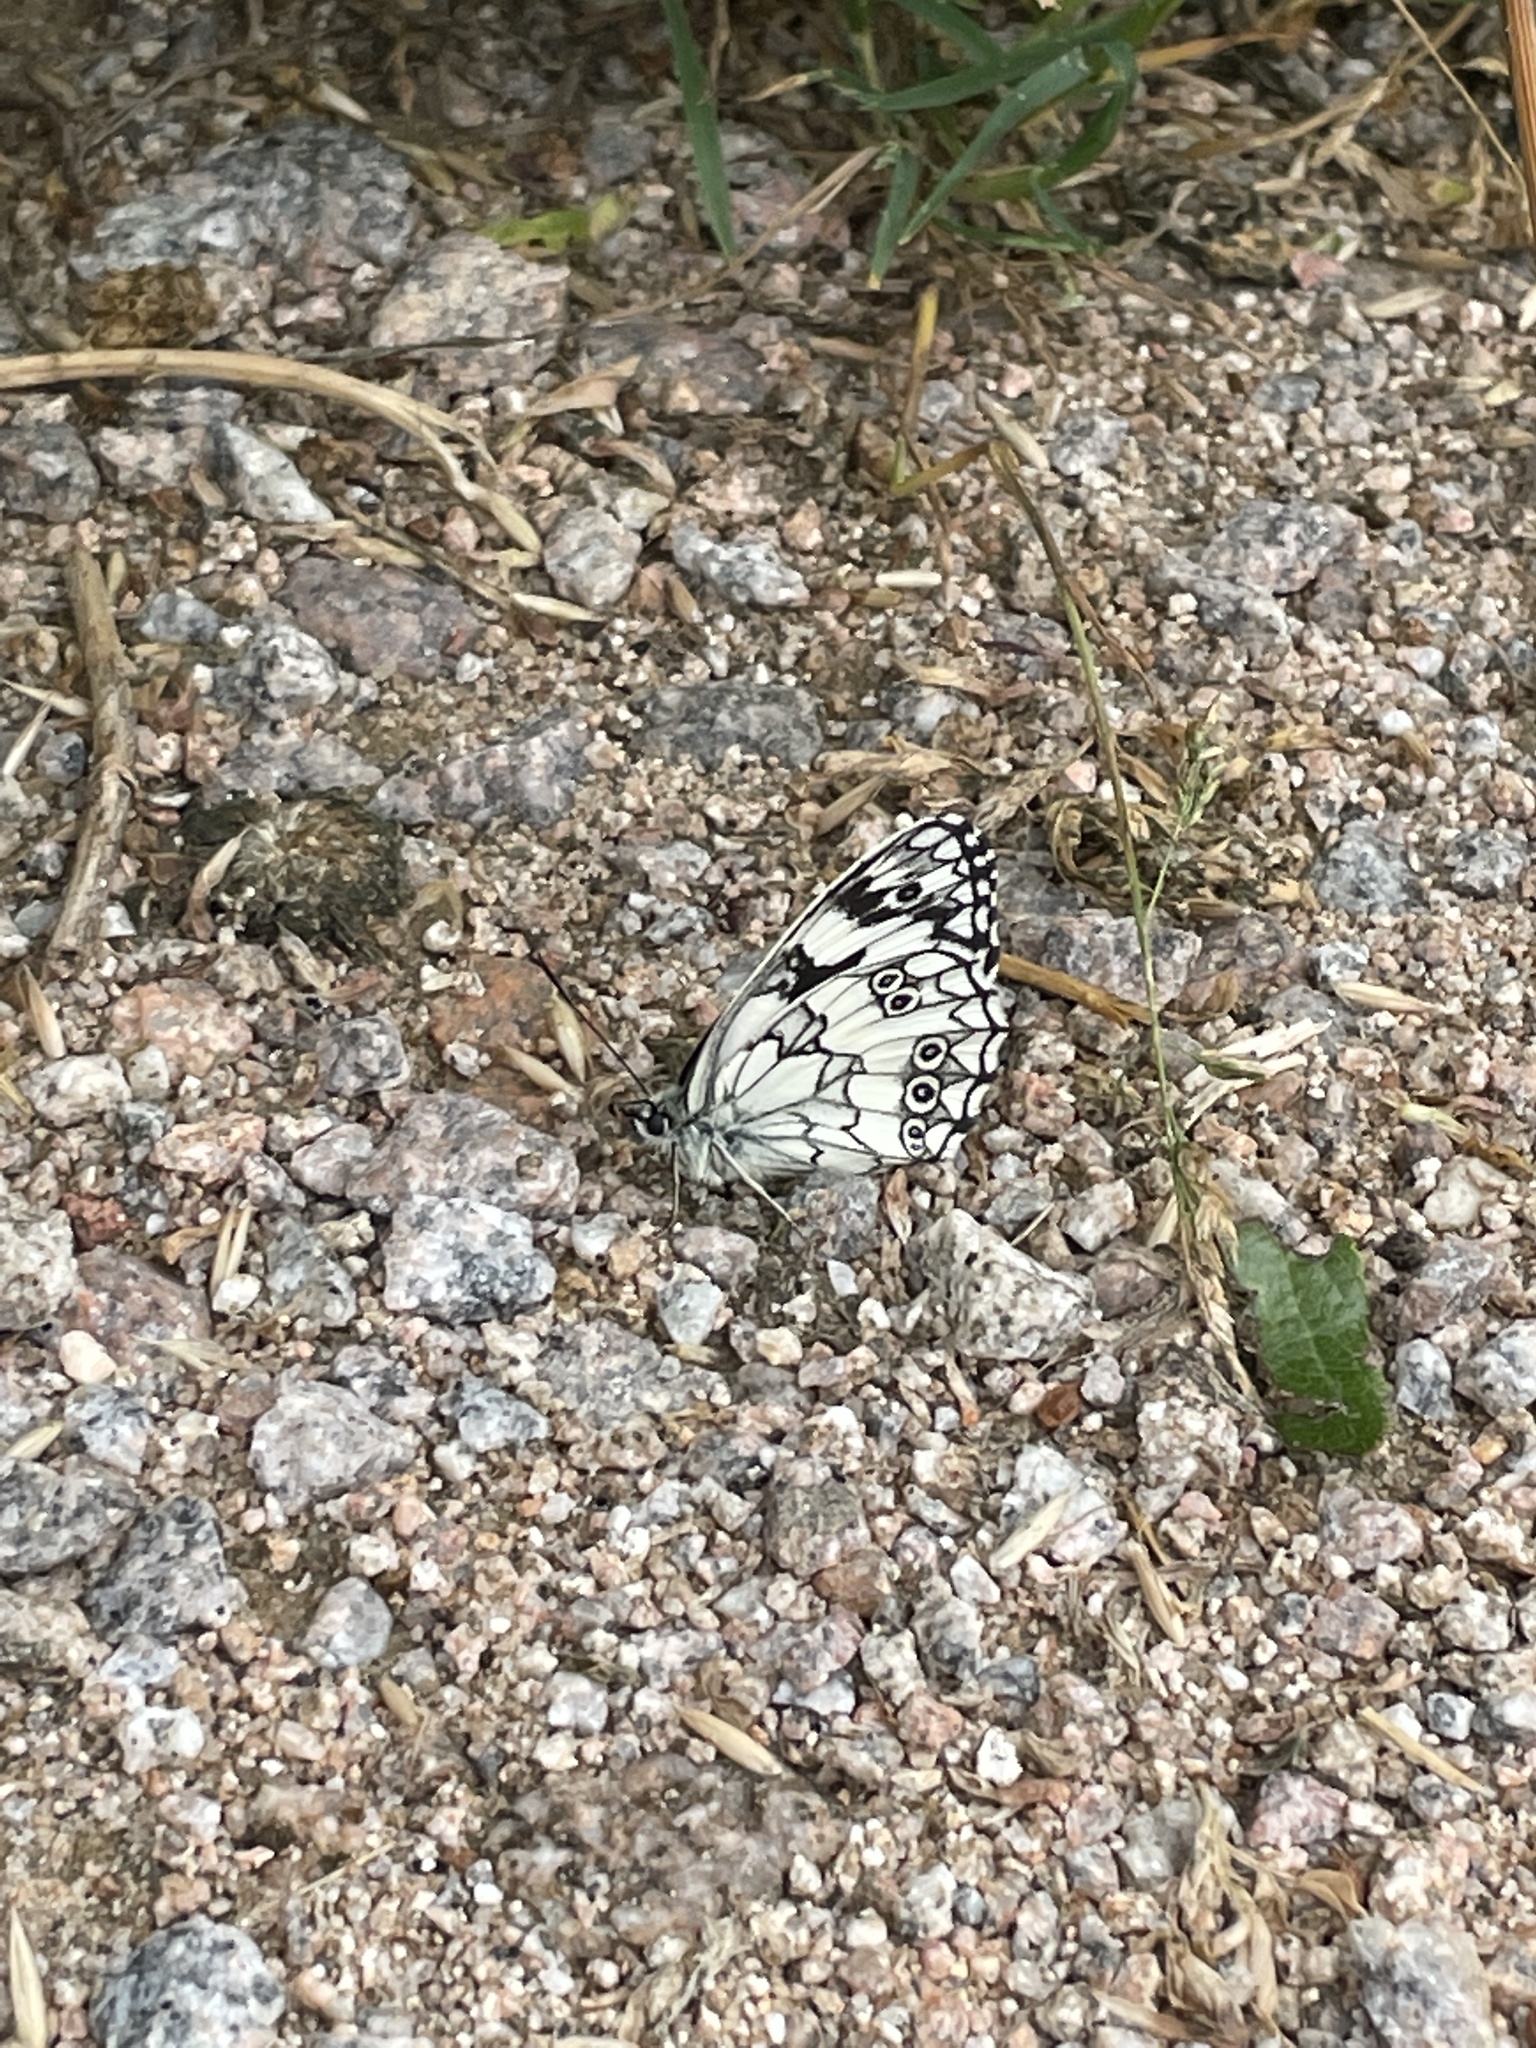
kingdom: Animalia
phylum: Arthropoda
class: Insecta
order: Lepidoptera
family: Nymphalidae
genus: Melanargia
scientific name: Melanargia galathea
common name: Marbled white
